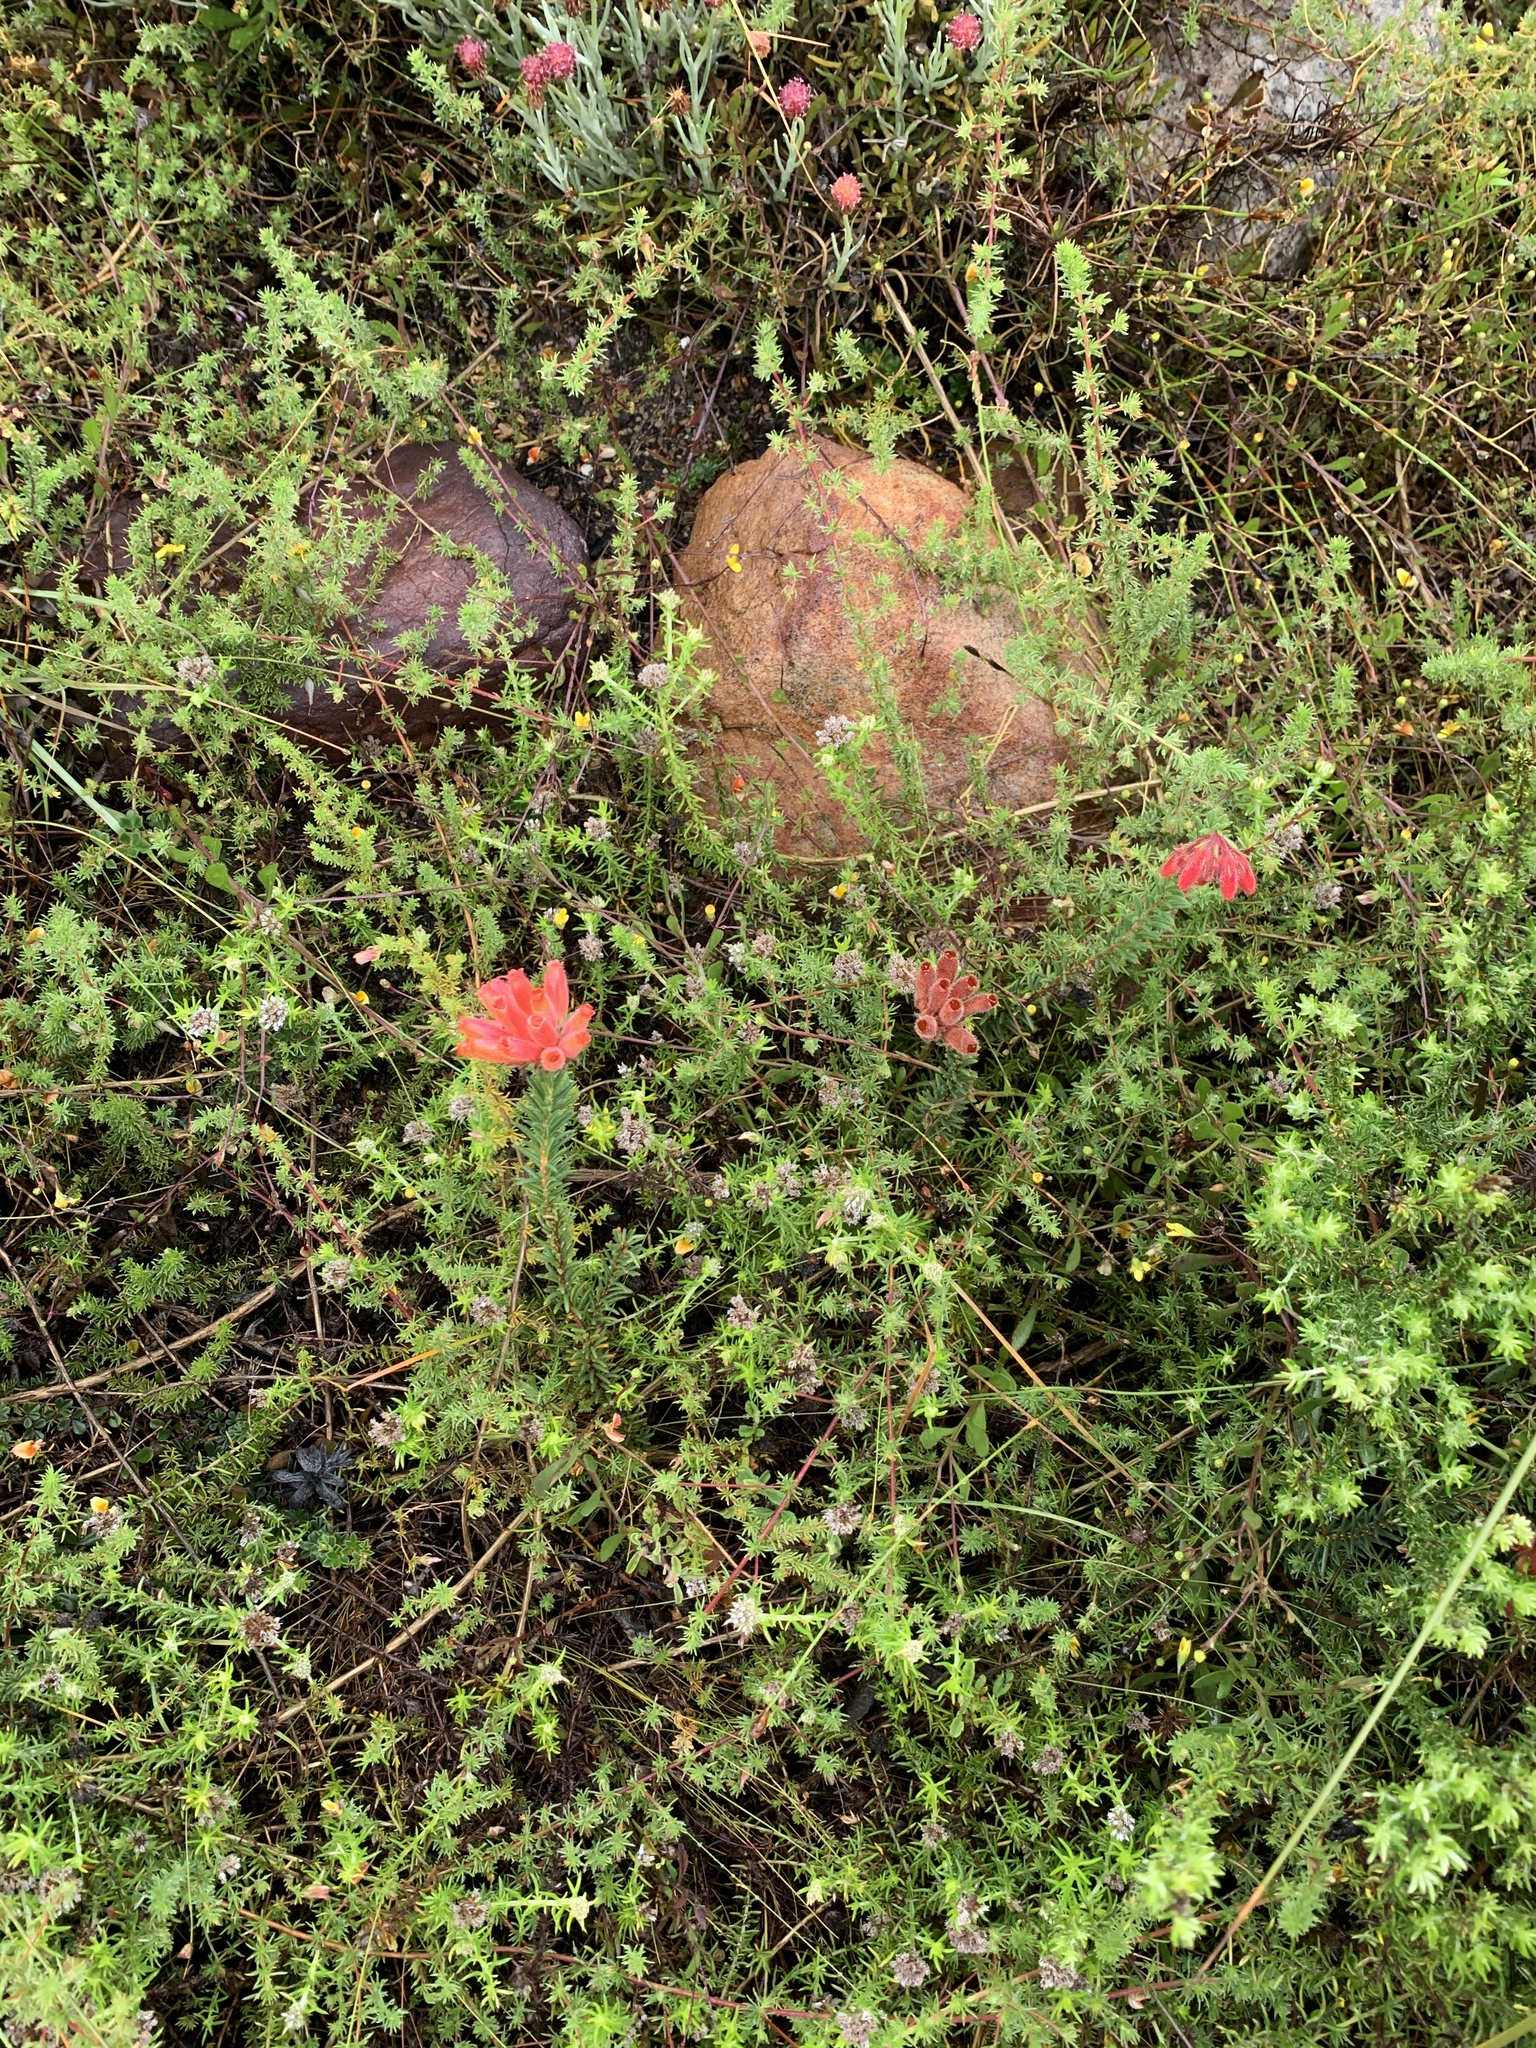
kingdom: Plantae
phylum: Tracheophyta
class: Magnoliopsida
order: Ericales
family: Ericaceae
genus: Erica
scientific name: Erica cerinthoides
